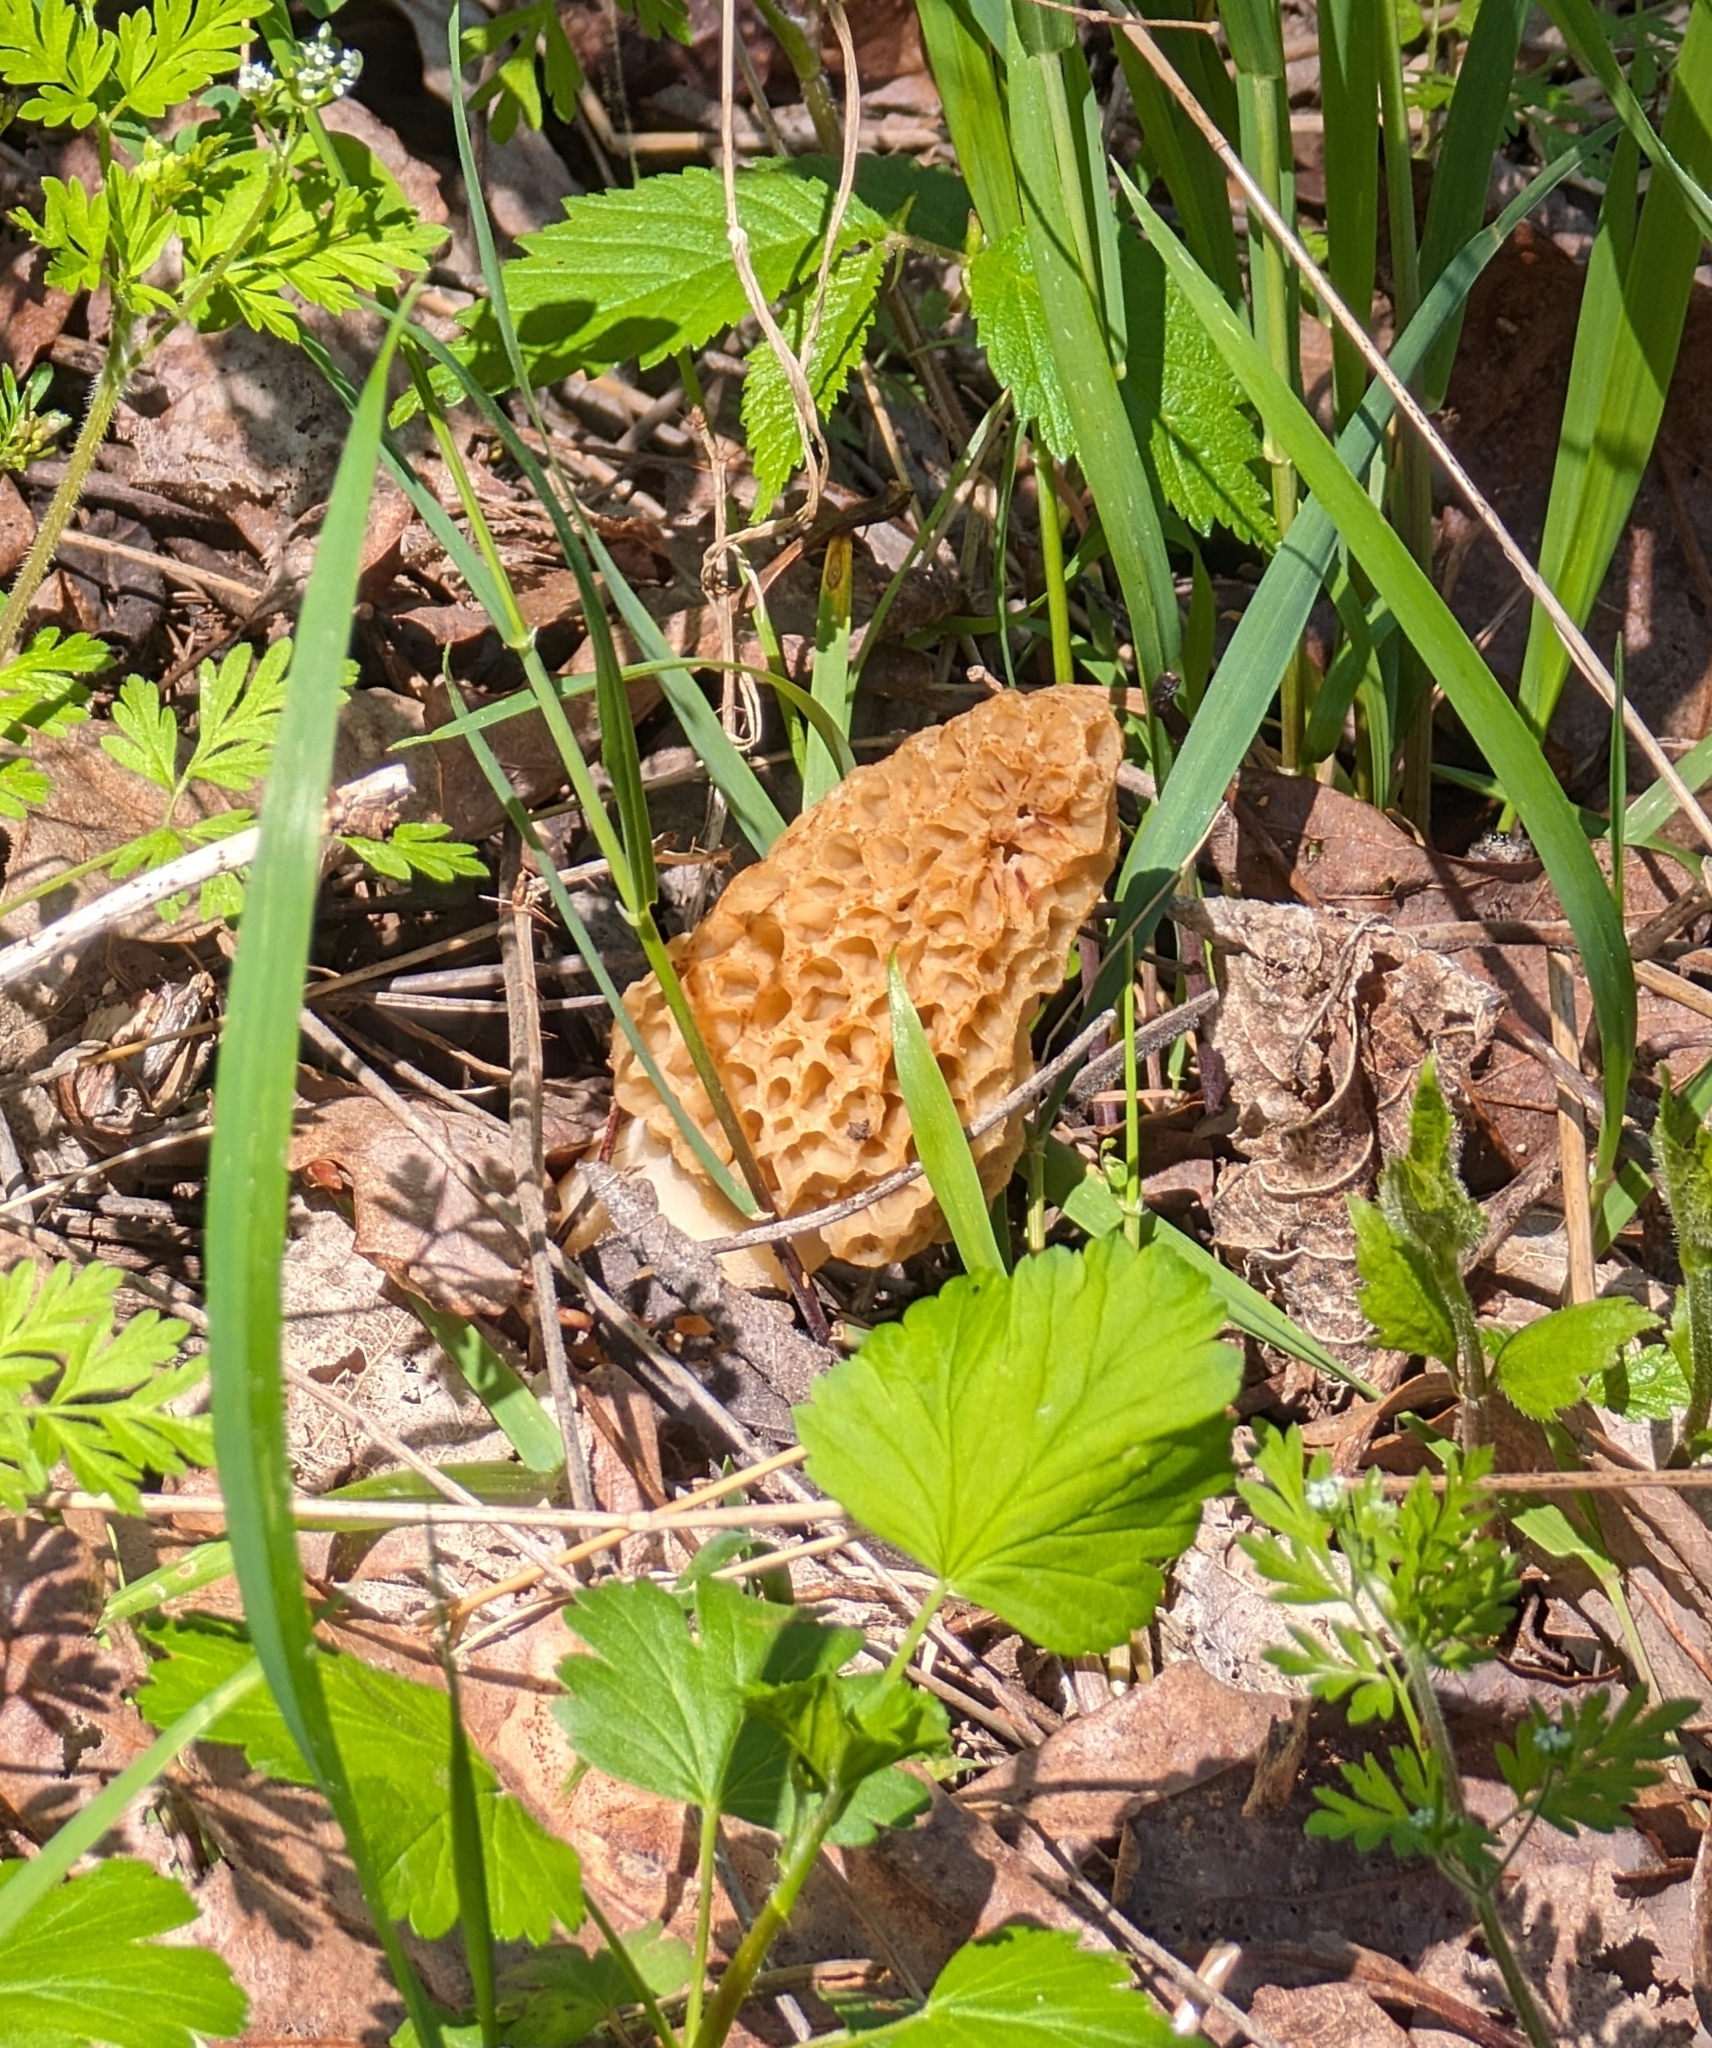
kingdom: Fungi
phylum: Ascomycota
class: Pezizomycetes
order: Pezizales
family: Morchellaceae
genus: Morchella
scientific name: Morchella americana
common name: White morel
